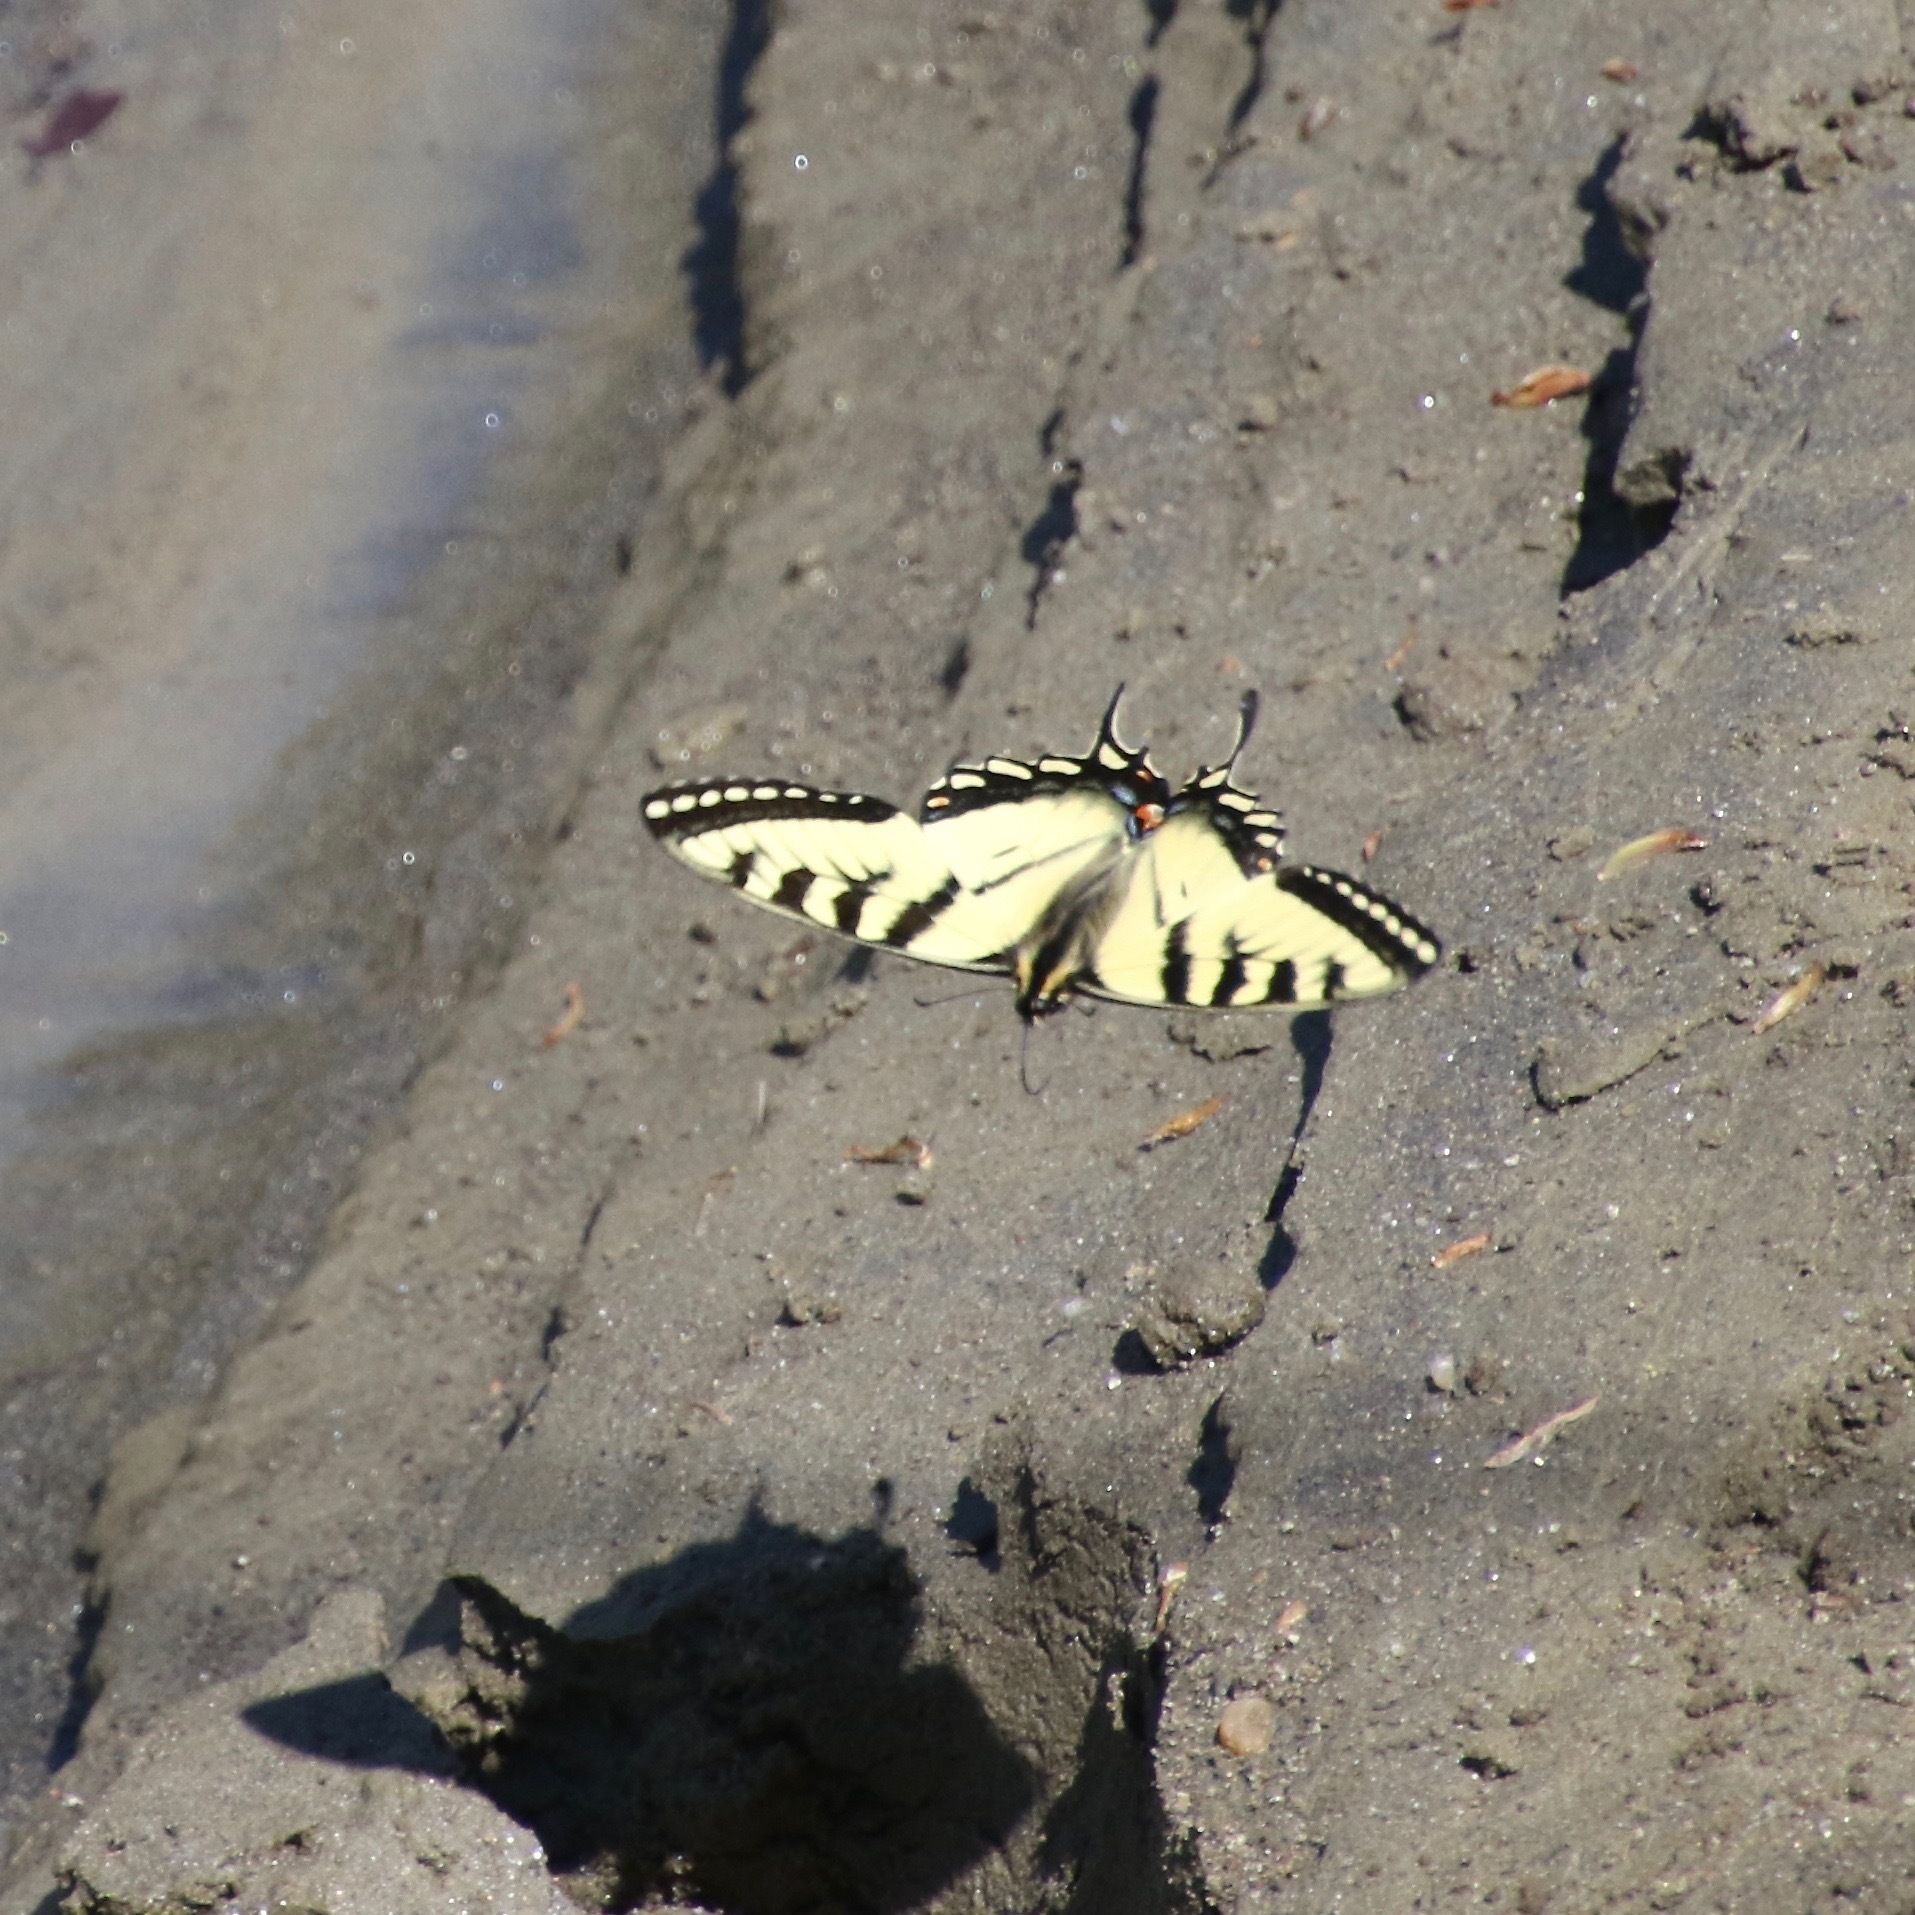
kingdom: Animalia
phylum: Arthropoda
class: Insecta
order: Lepidoptera
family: Papilionidae
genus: Papilio
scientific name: Papilio canadensis
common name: Canadian tiger swallowtail
